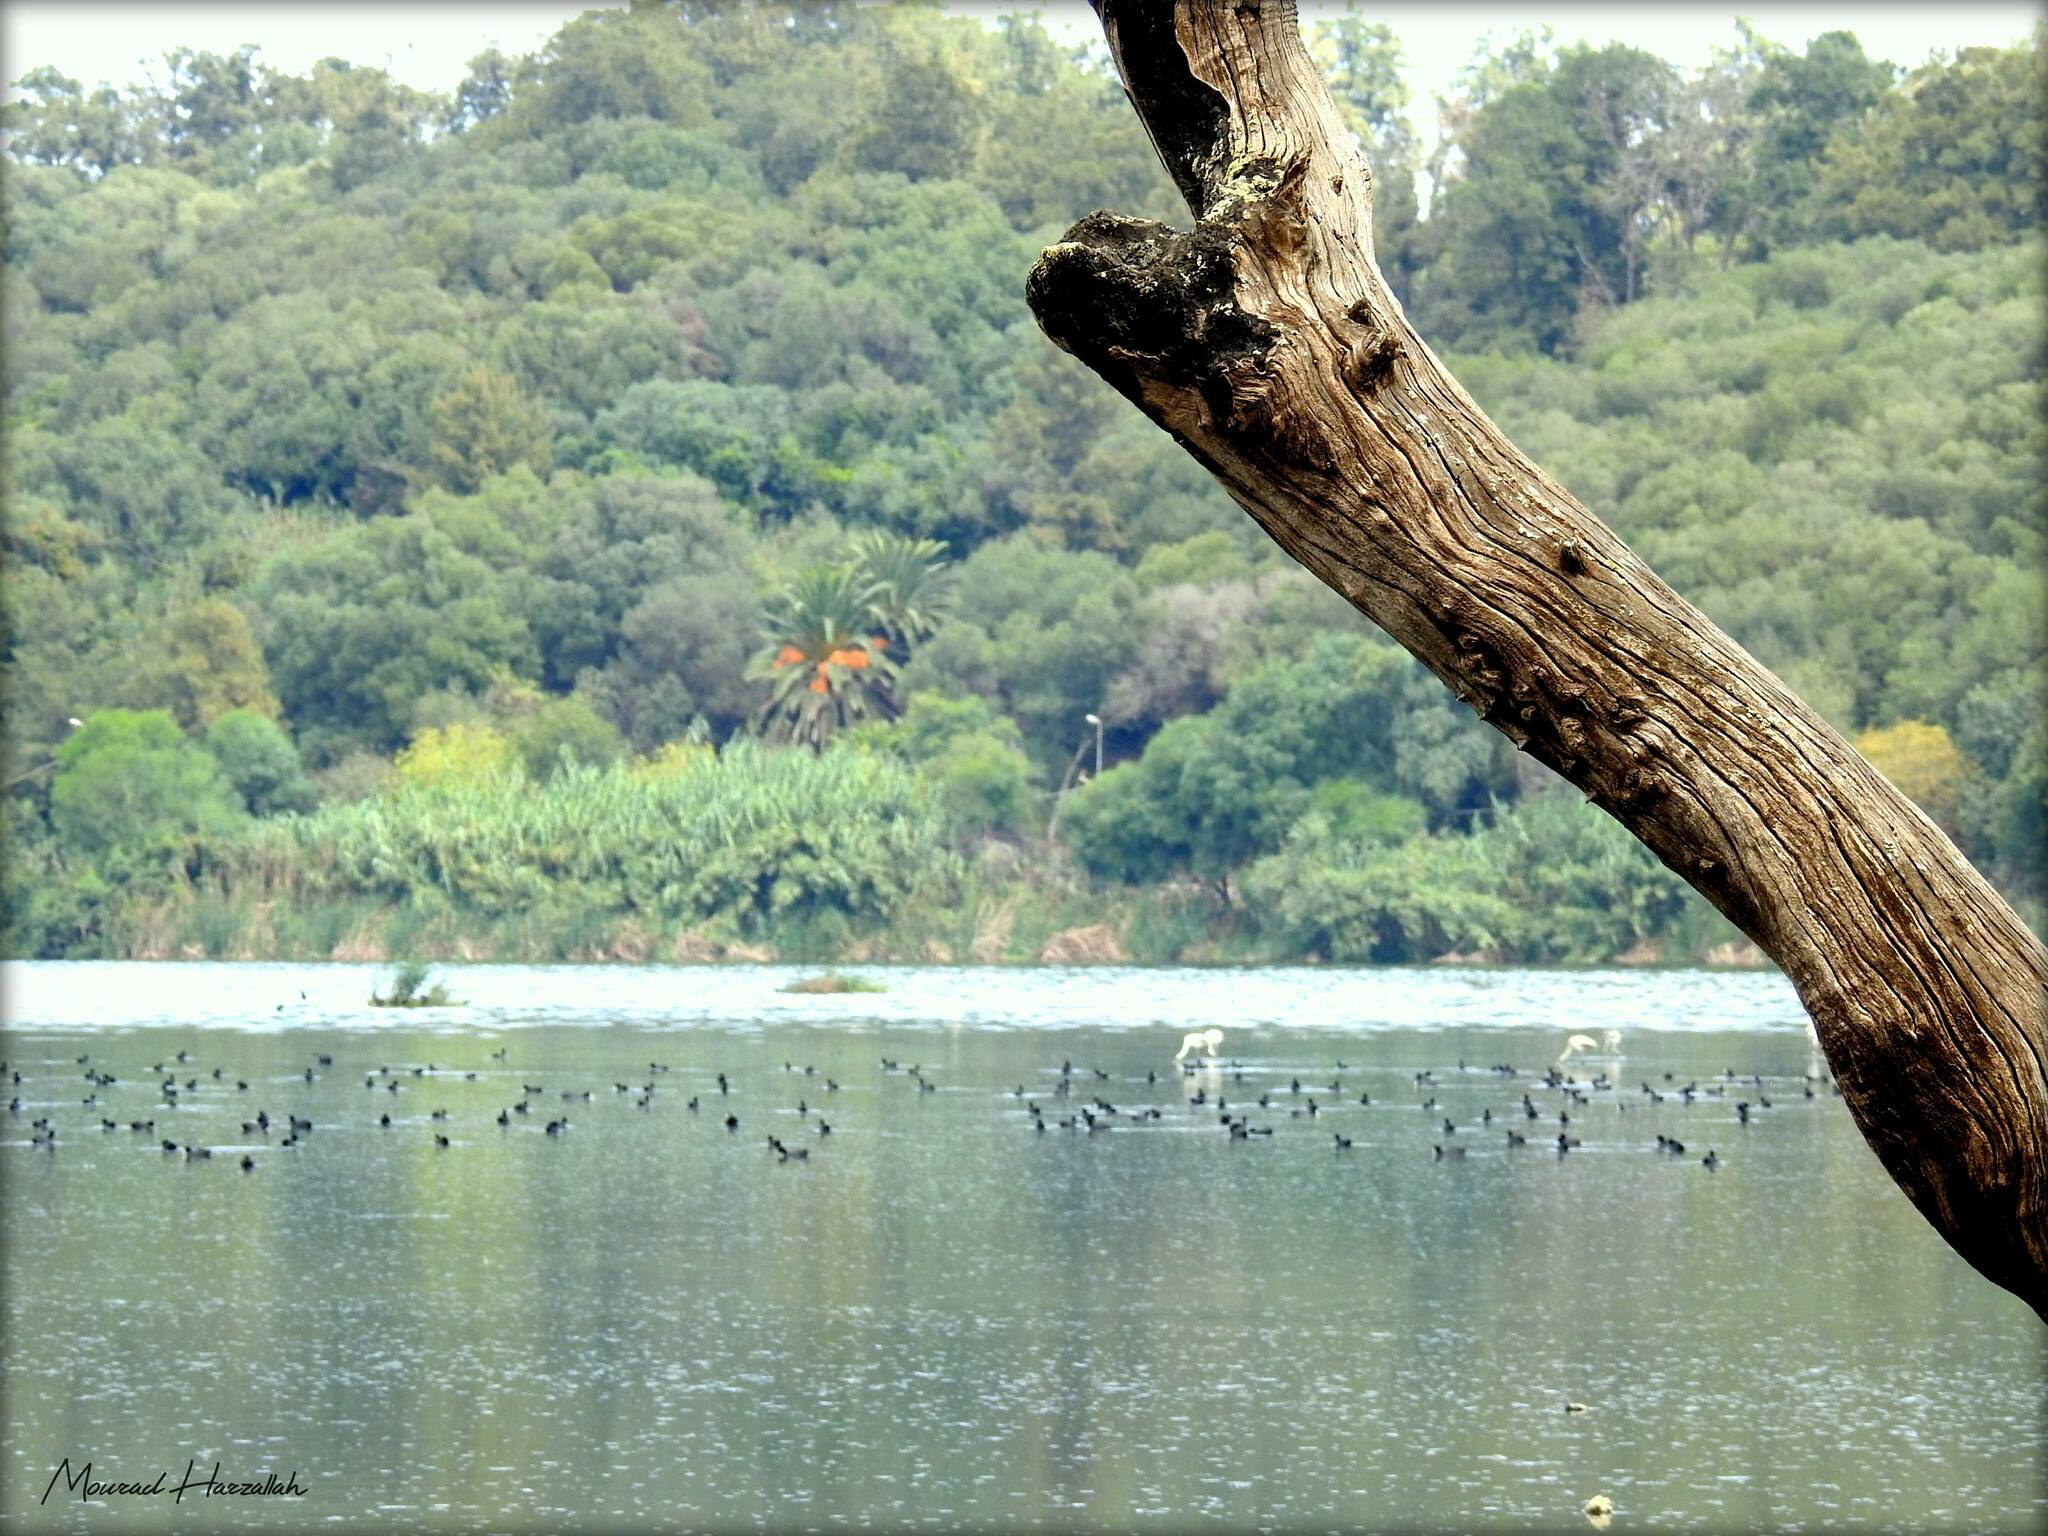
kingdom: Animalia
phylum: Chordata
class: Aves
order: Gruiformes
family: Rallidae
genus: Fulica
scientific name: Fulica atra
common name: Eurasian coot
